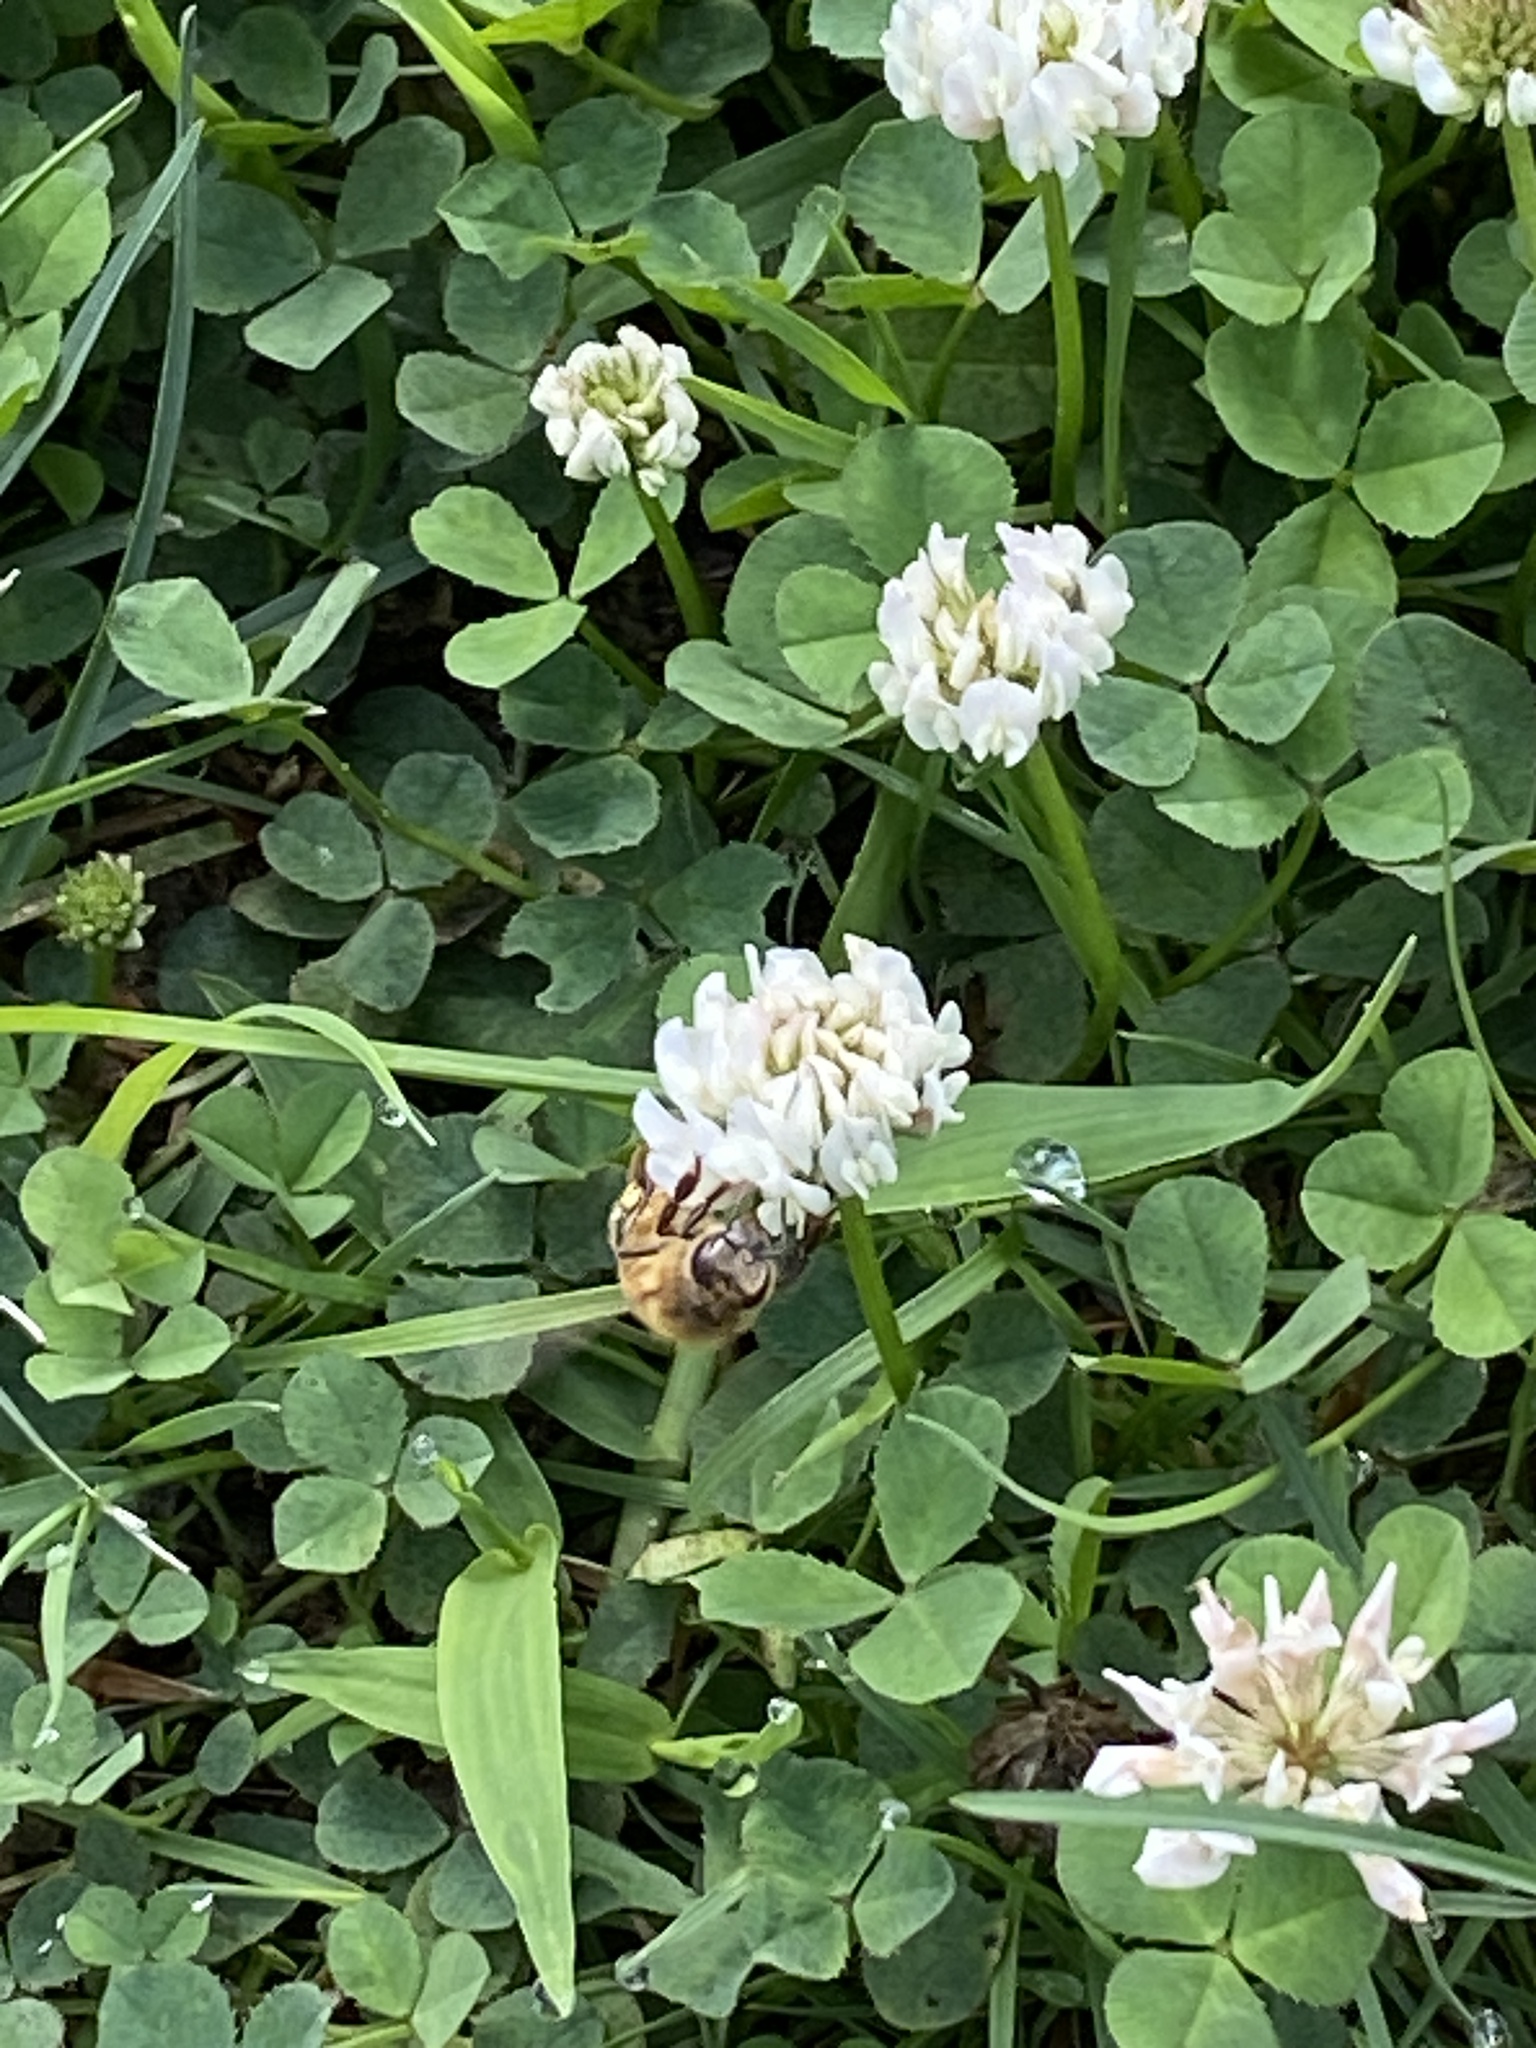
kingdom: Animalia
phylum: Arthropoda
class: Insecta
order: Hymenoptera
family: Apidae
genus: Apis
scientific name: Apis mellifera
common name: Honey bee
